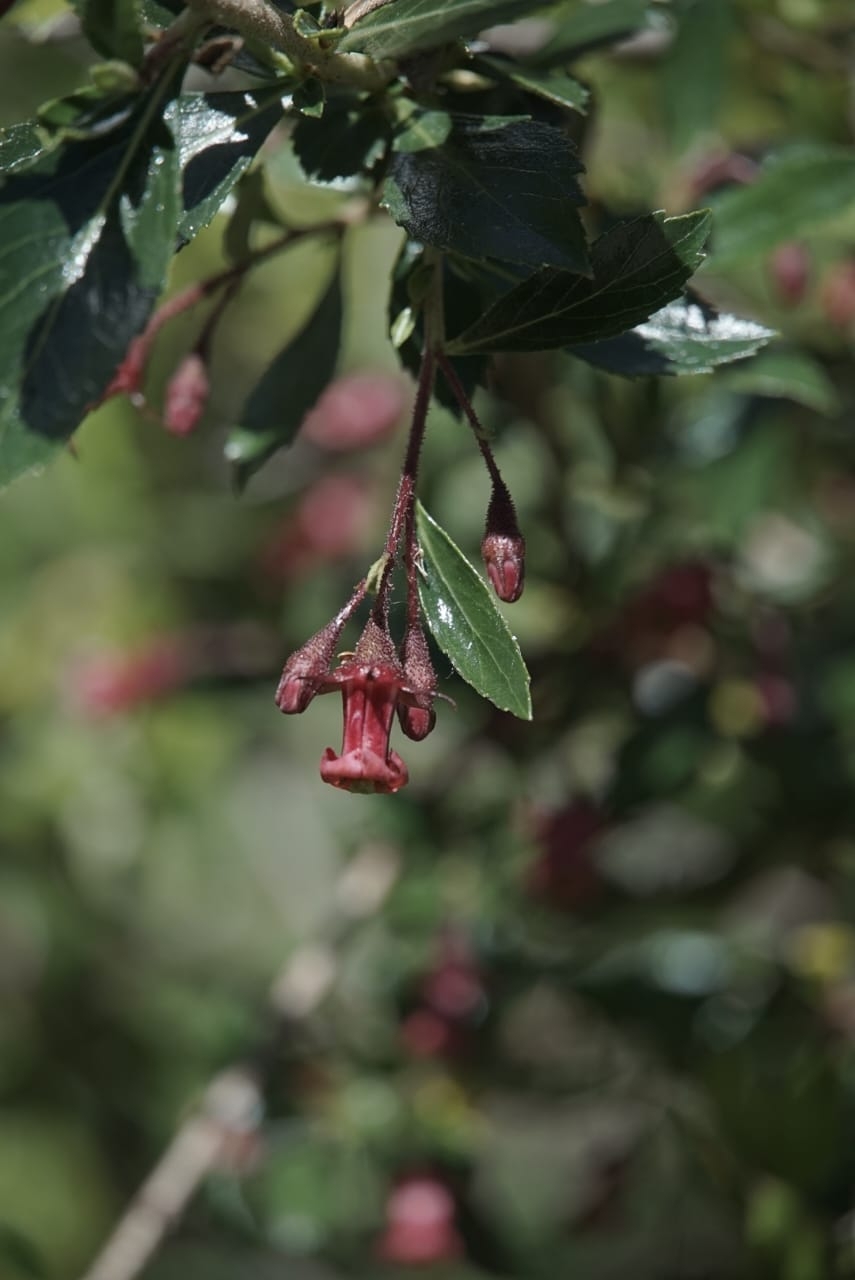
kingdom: Plantae
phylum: Tracheophyta
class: Magnoliopsida
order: Escalloniales
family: Escalloniaceae
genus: Escallonia
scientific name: Escallonia rubra
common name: Redclaws
